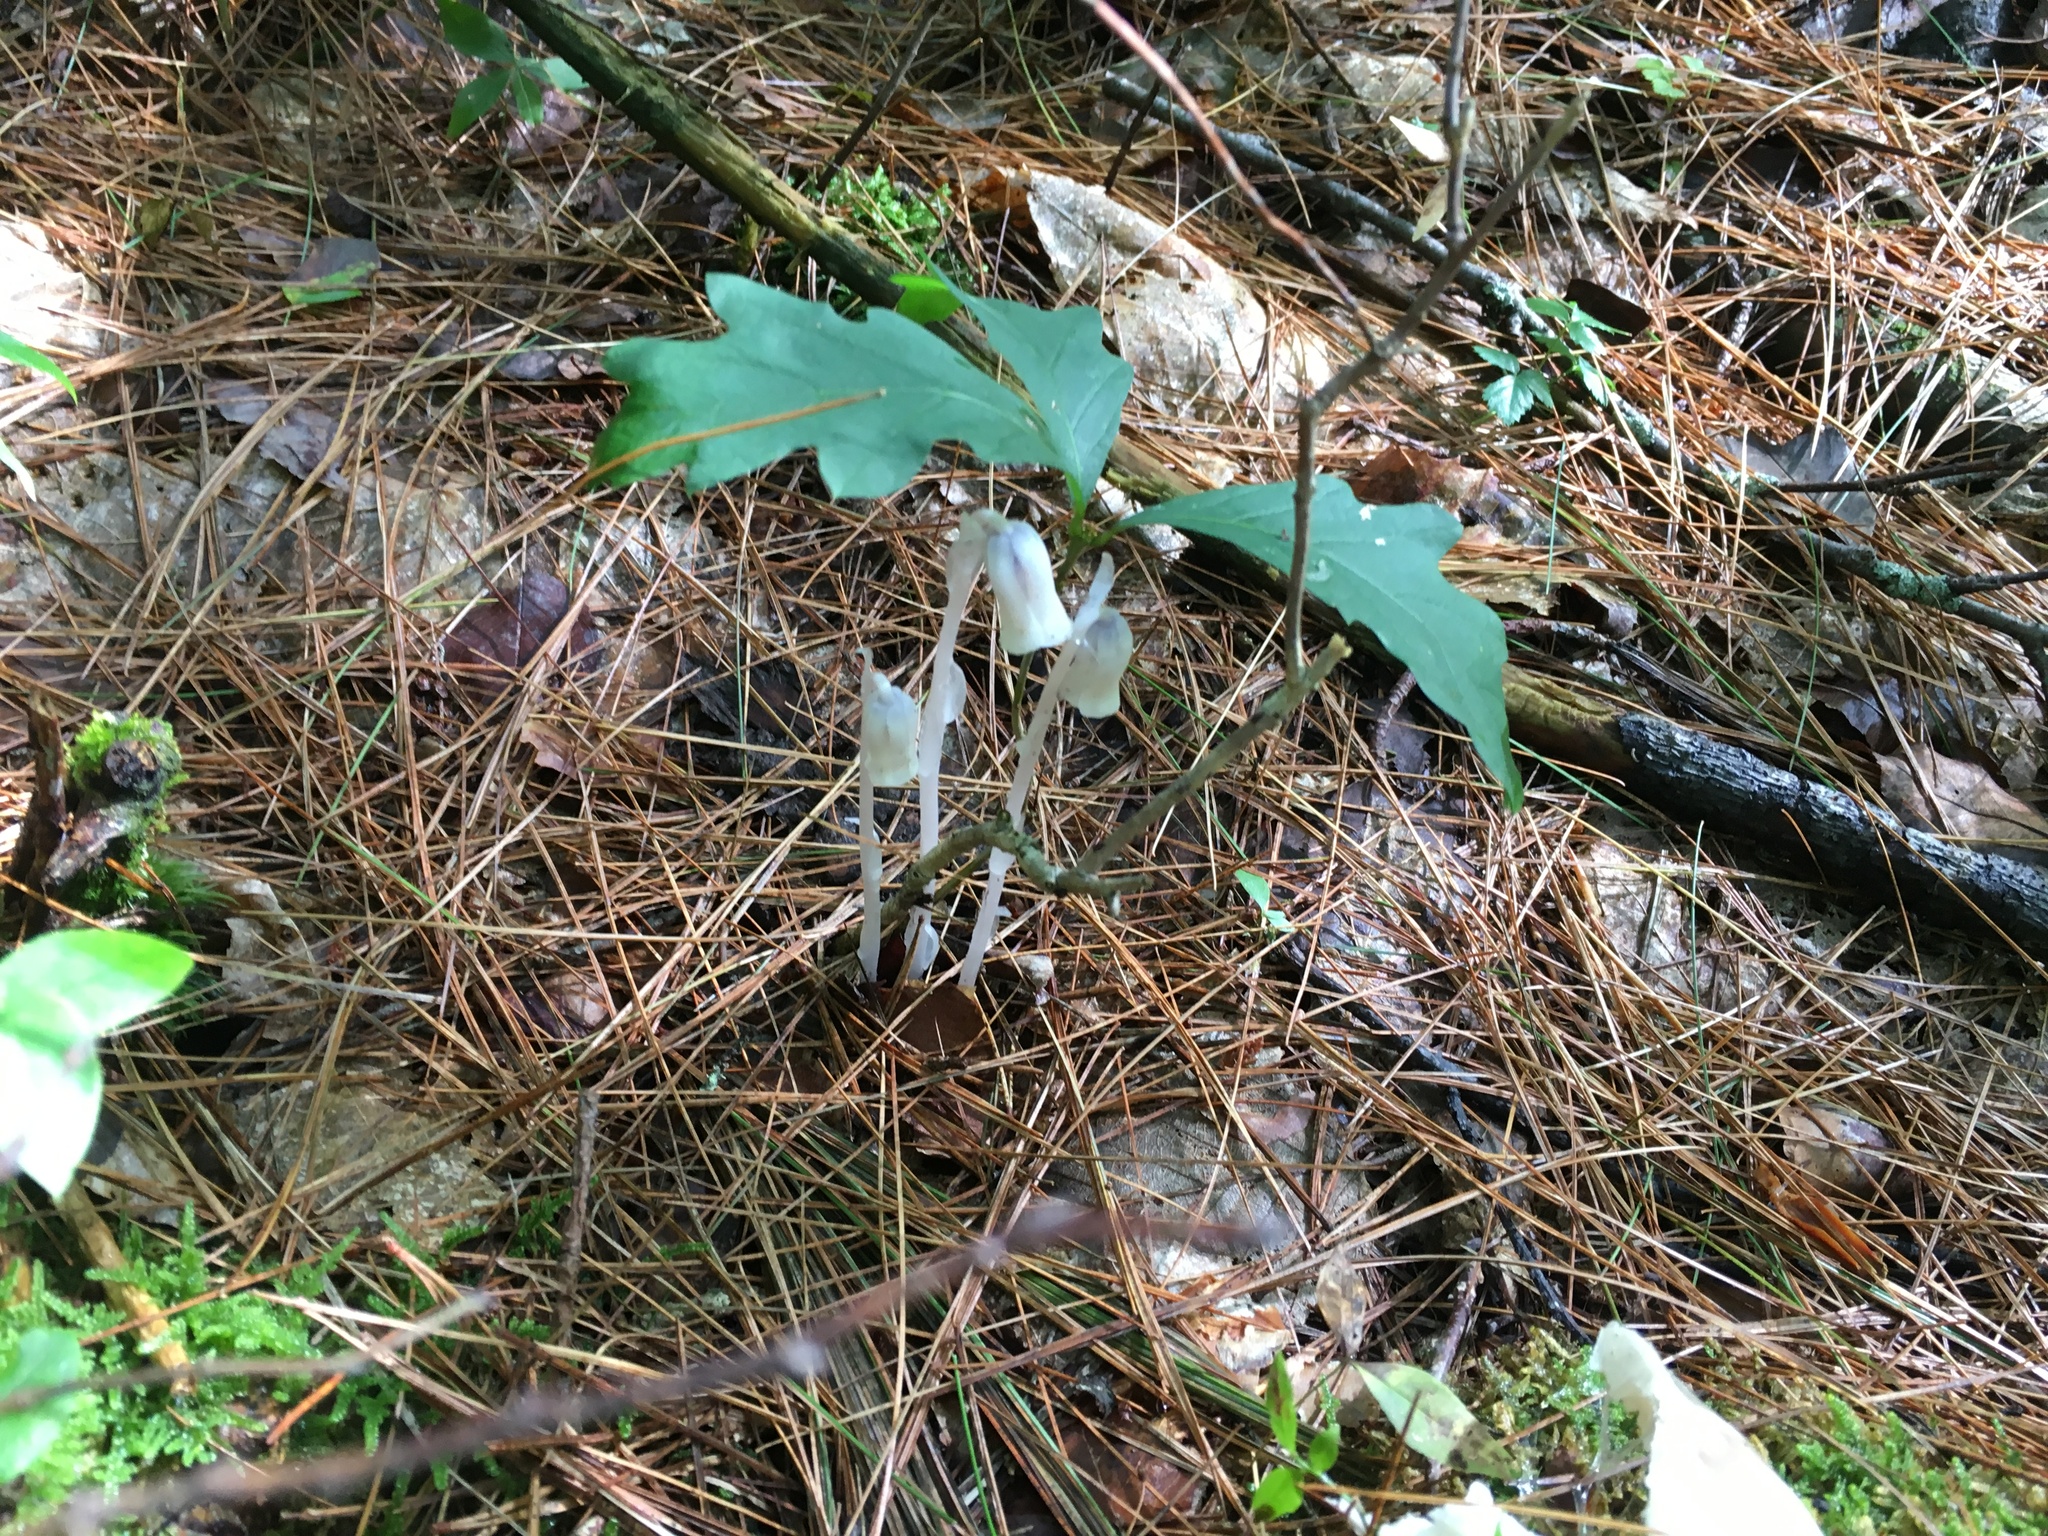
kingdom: Plantae
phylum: Tracheophyta
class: Magnoliopsida
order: Ericales
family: Ericaceae
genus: Monotropa
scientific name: Monotropa uniflora
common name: Convulsion root
